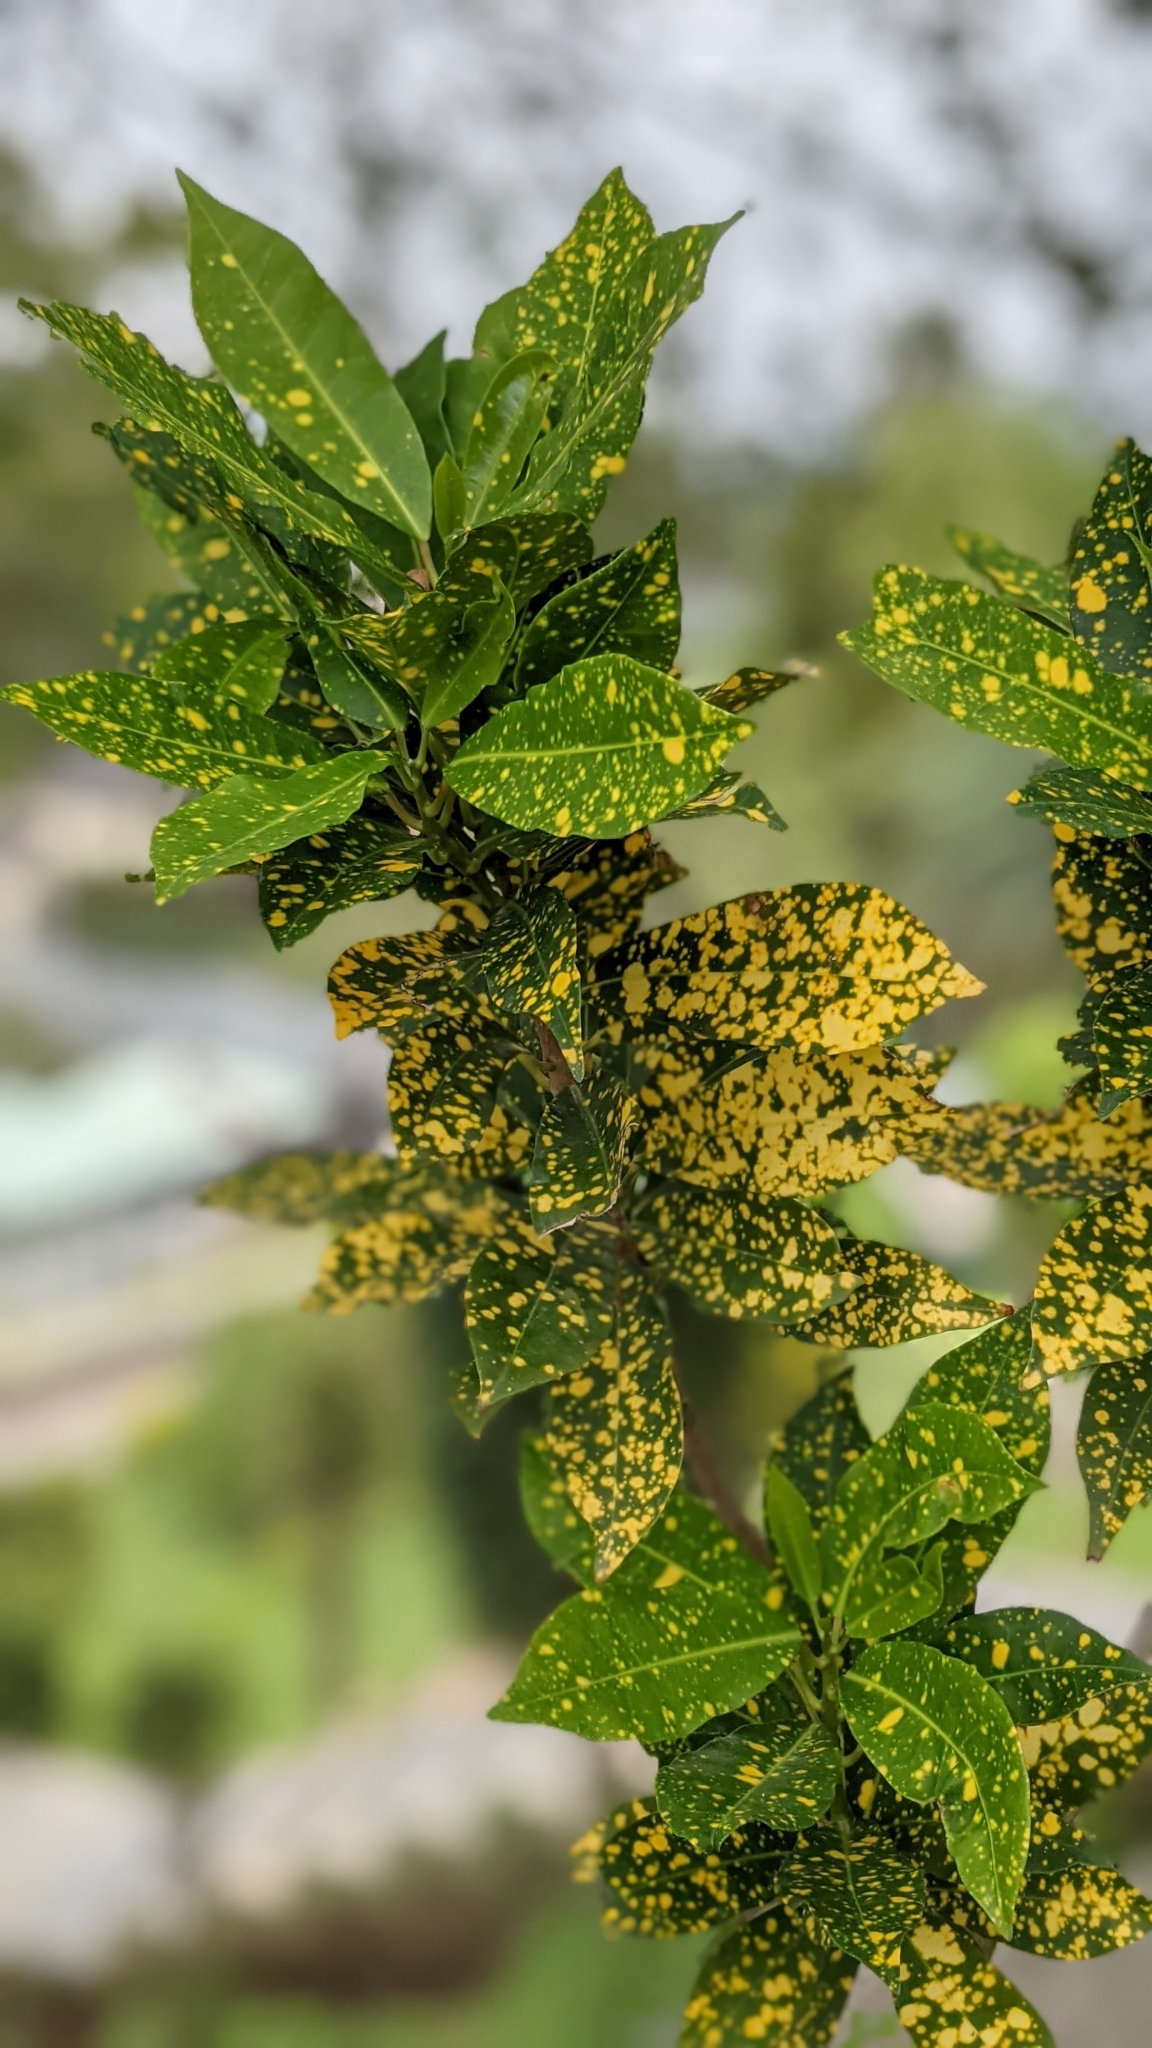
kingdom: Plantae
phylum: Tracheophyta
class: Magnoliopsida
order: Malpighiales
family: Euphorbiaceae
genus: Codiaeum
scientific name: Codiaeum variegatum
